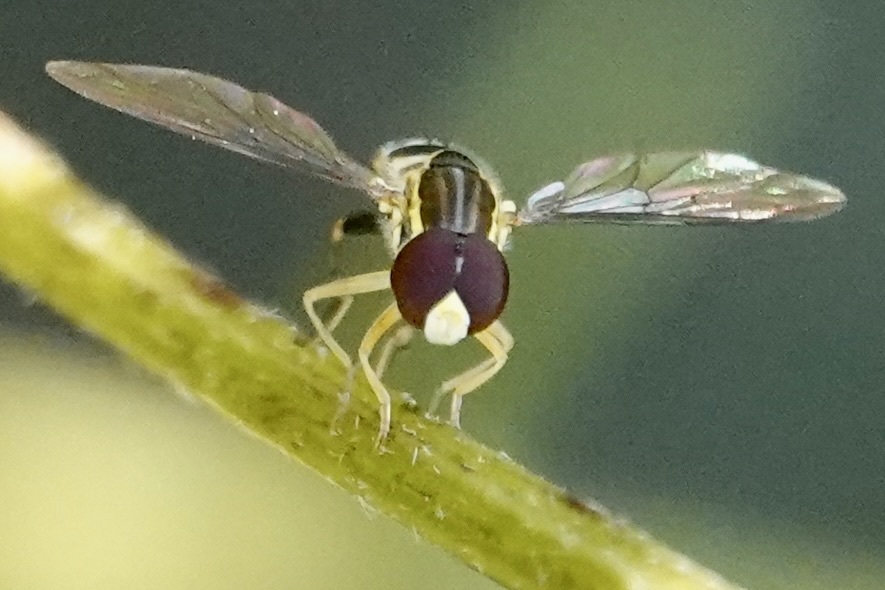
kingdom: Animalia
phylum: Arthropoda
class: Insecta
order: Diptera
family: Syrphidae
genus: Toxomerus
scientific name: Toxomerus geminatus
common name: Eastern calligrapher
